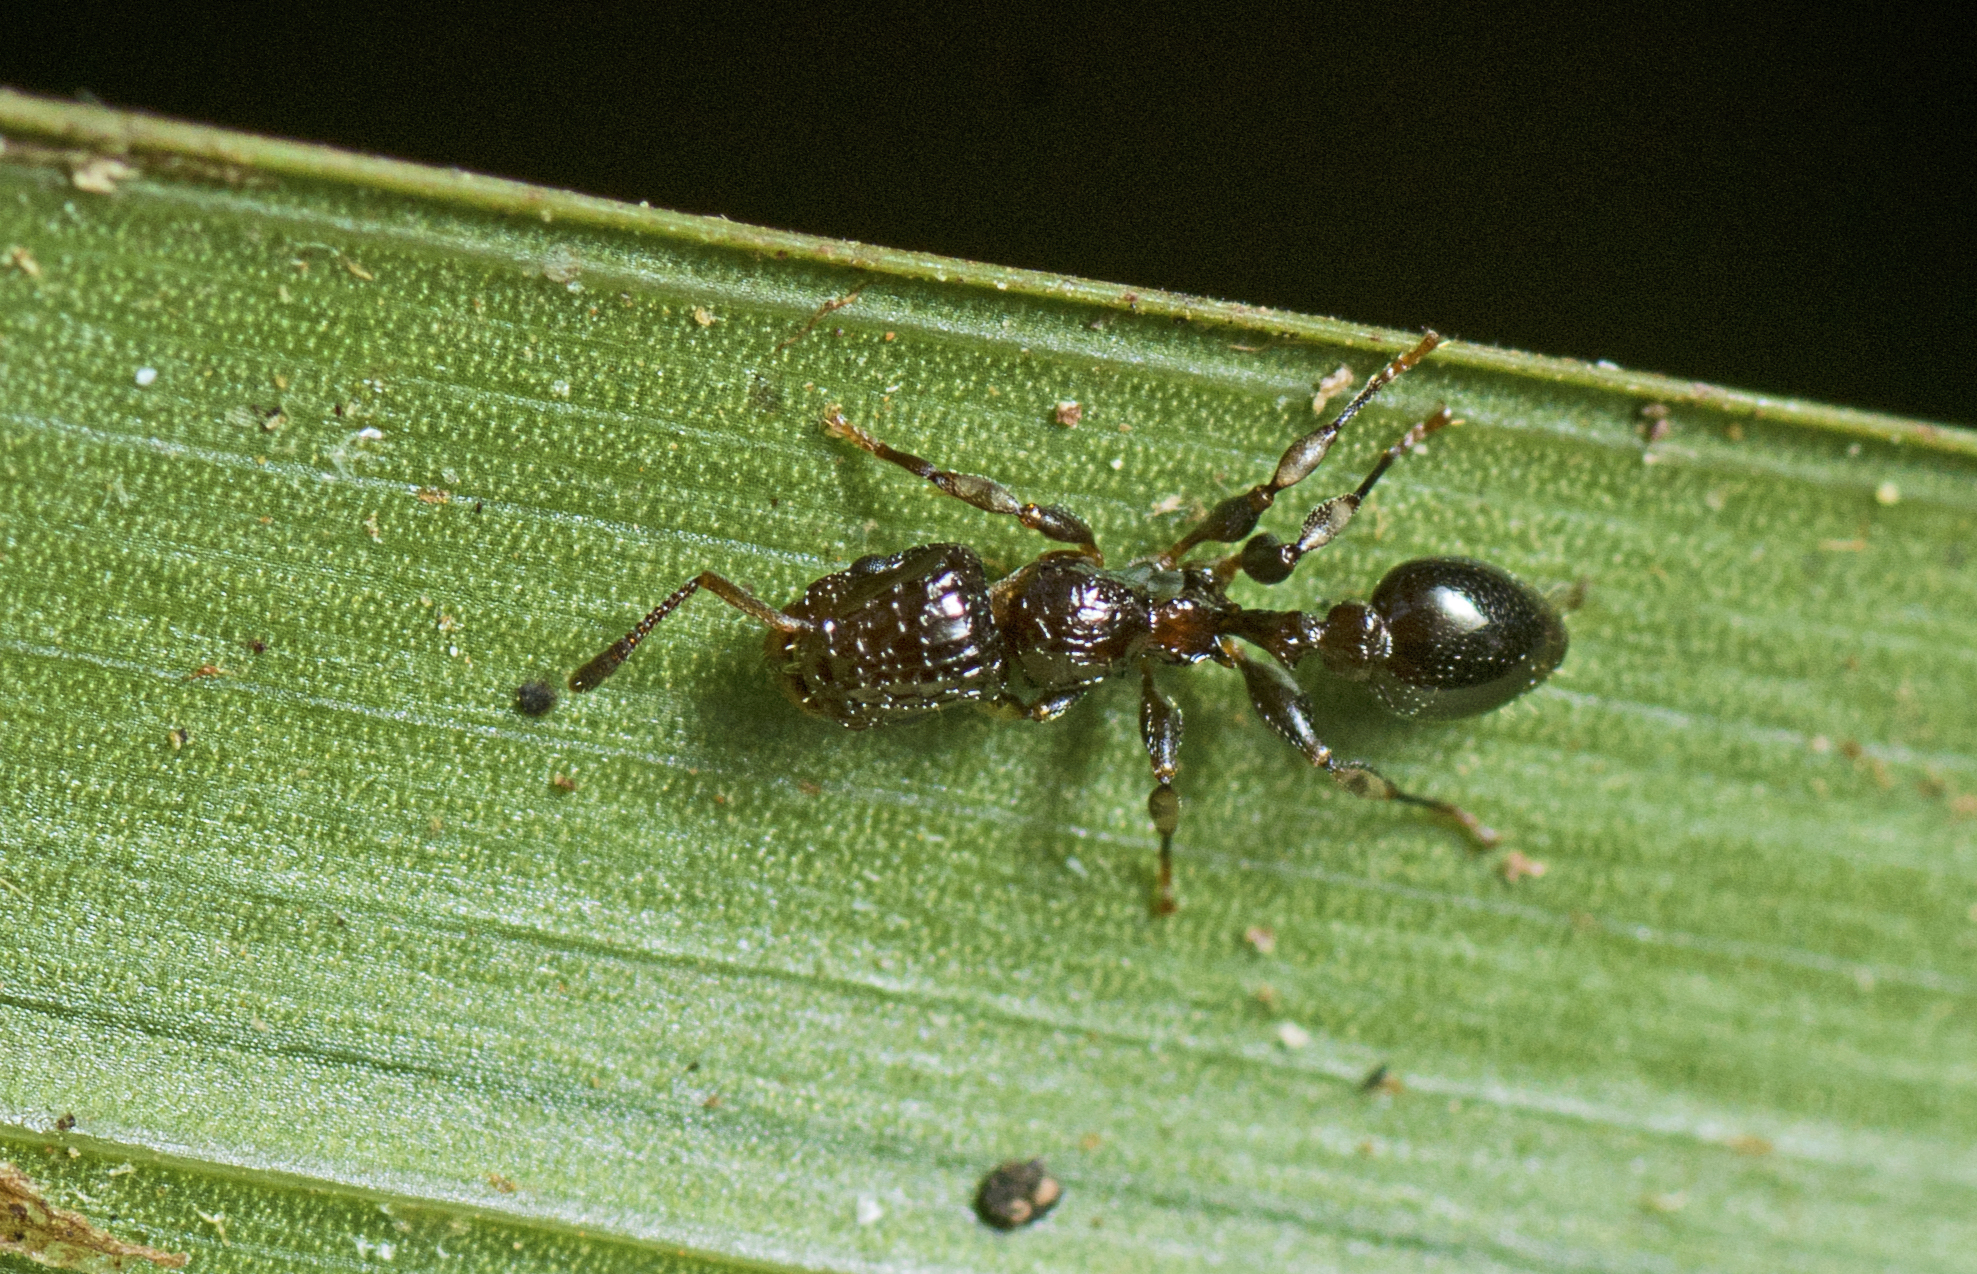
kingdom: Animalia
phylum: Arthropoda
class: Insecta
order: Hymenoptera
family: Formicidae
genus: Podomyrma
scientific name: Podomyrma overbecki
